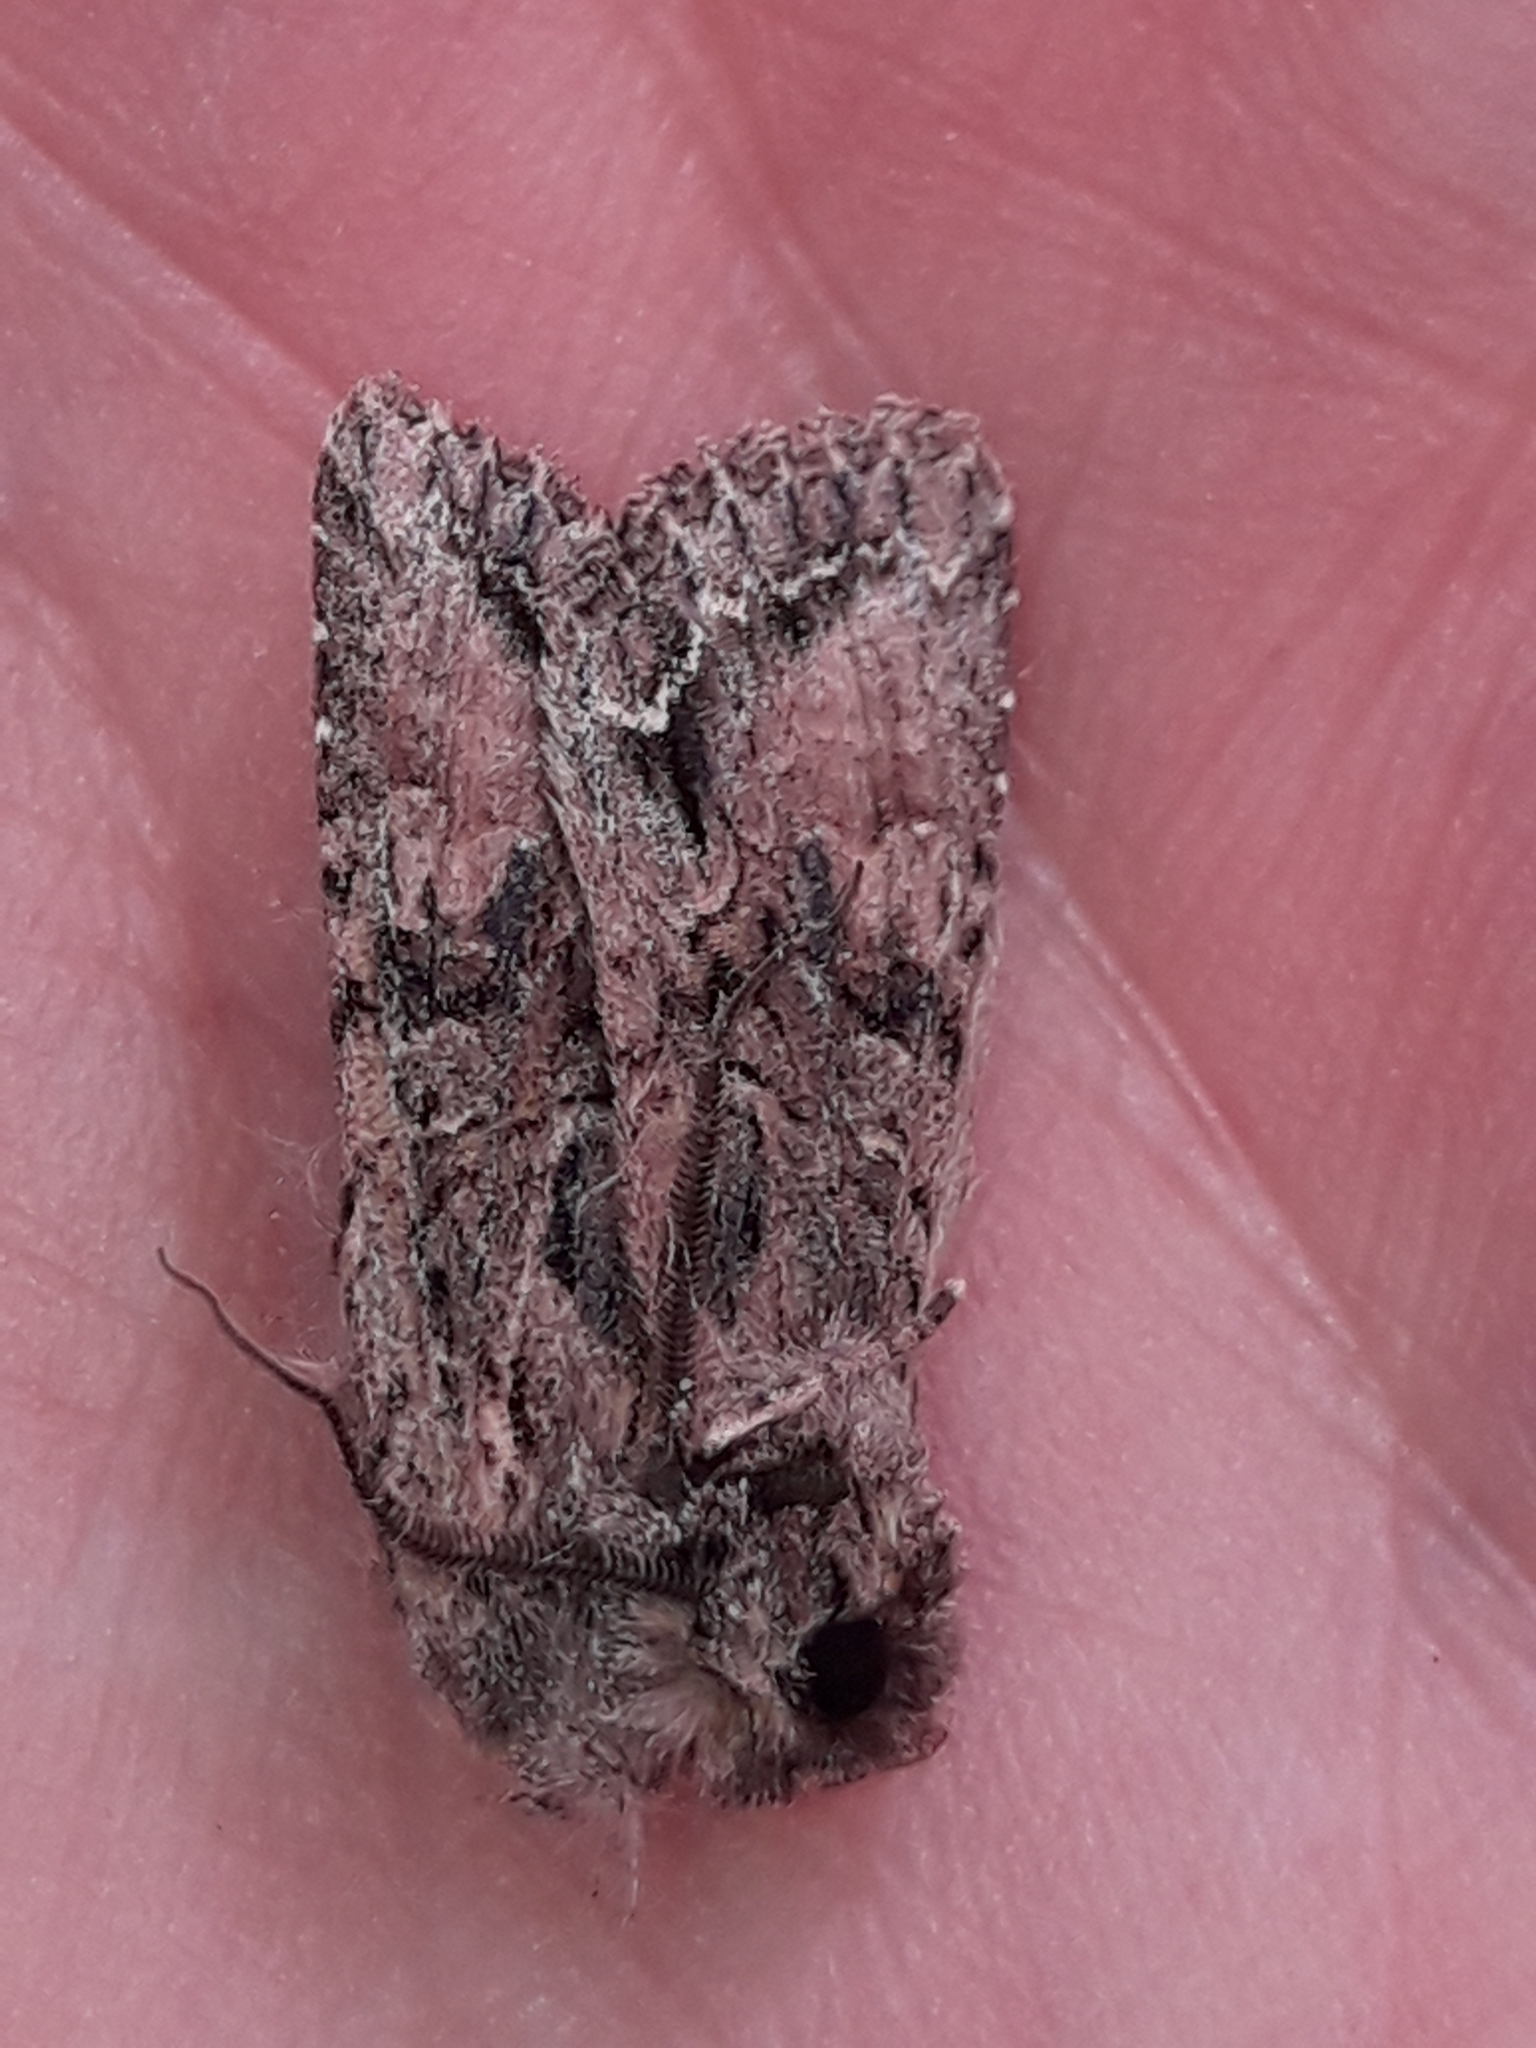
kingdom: Animalia
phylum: Arthropoda
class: Insecta
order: Lepidoptera
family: Noctuidae
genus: Ichneutica
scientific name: Ichneutica mutans
